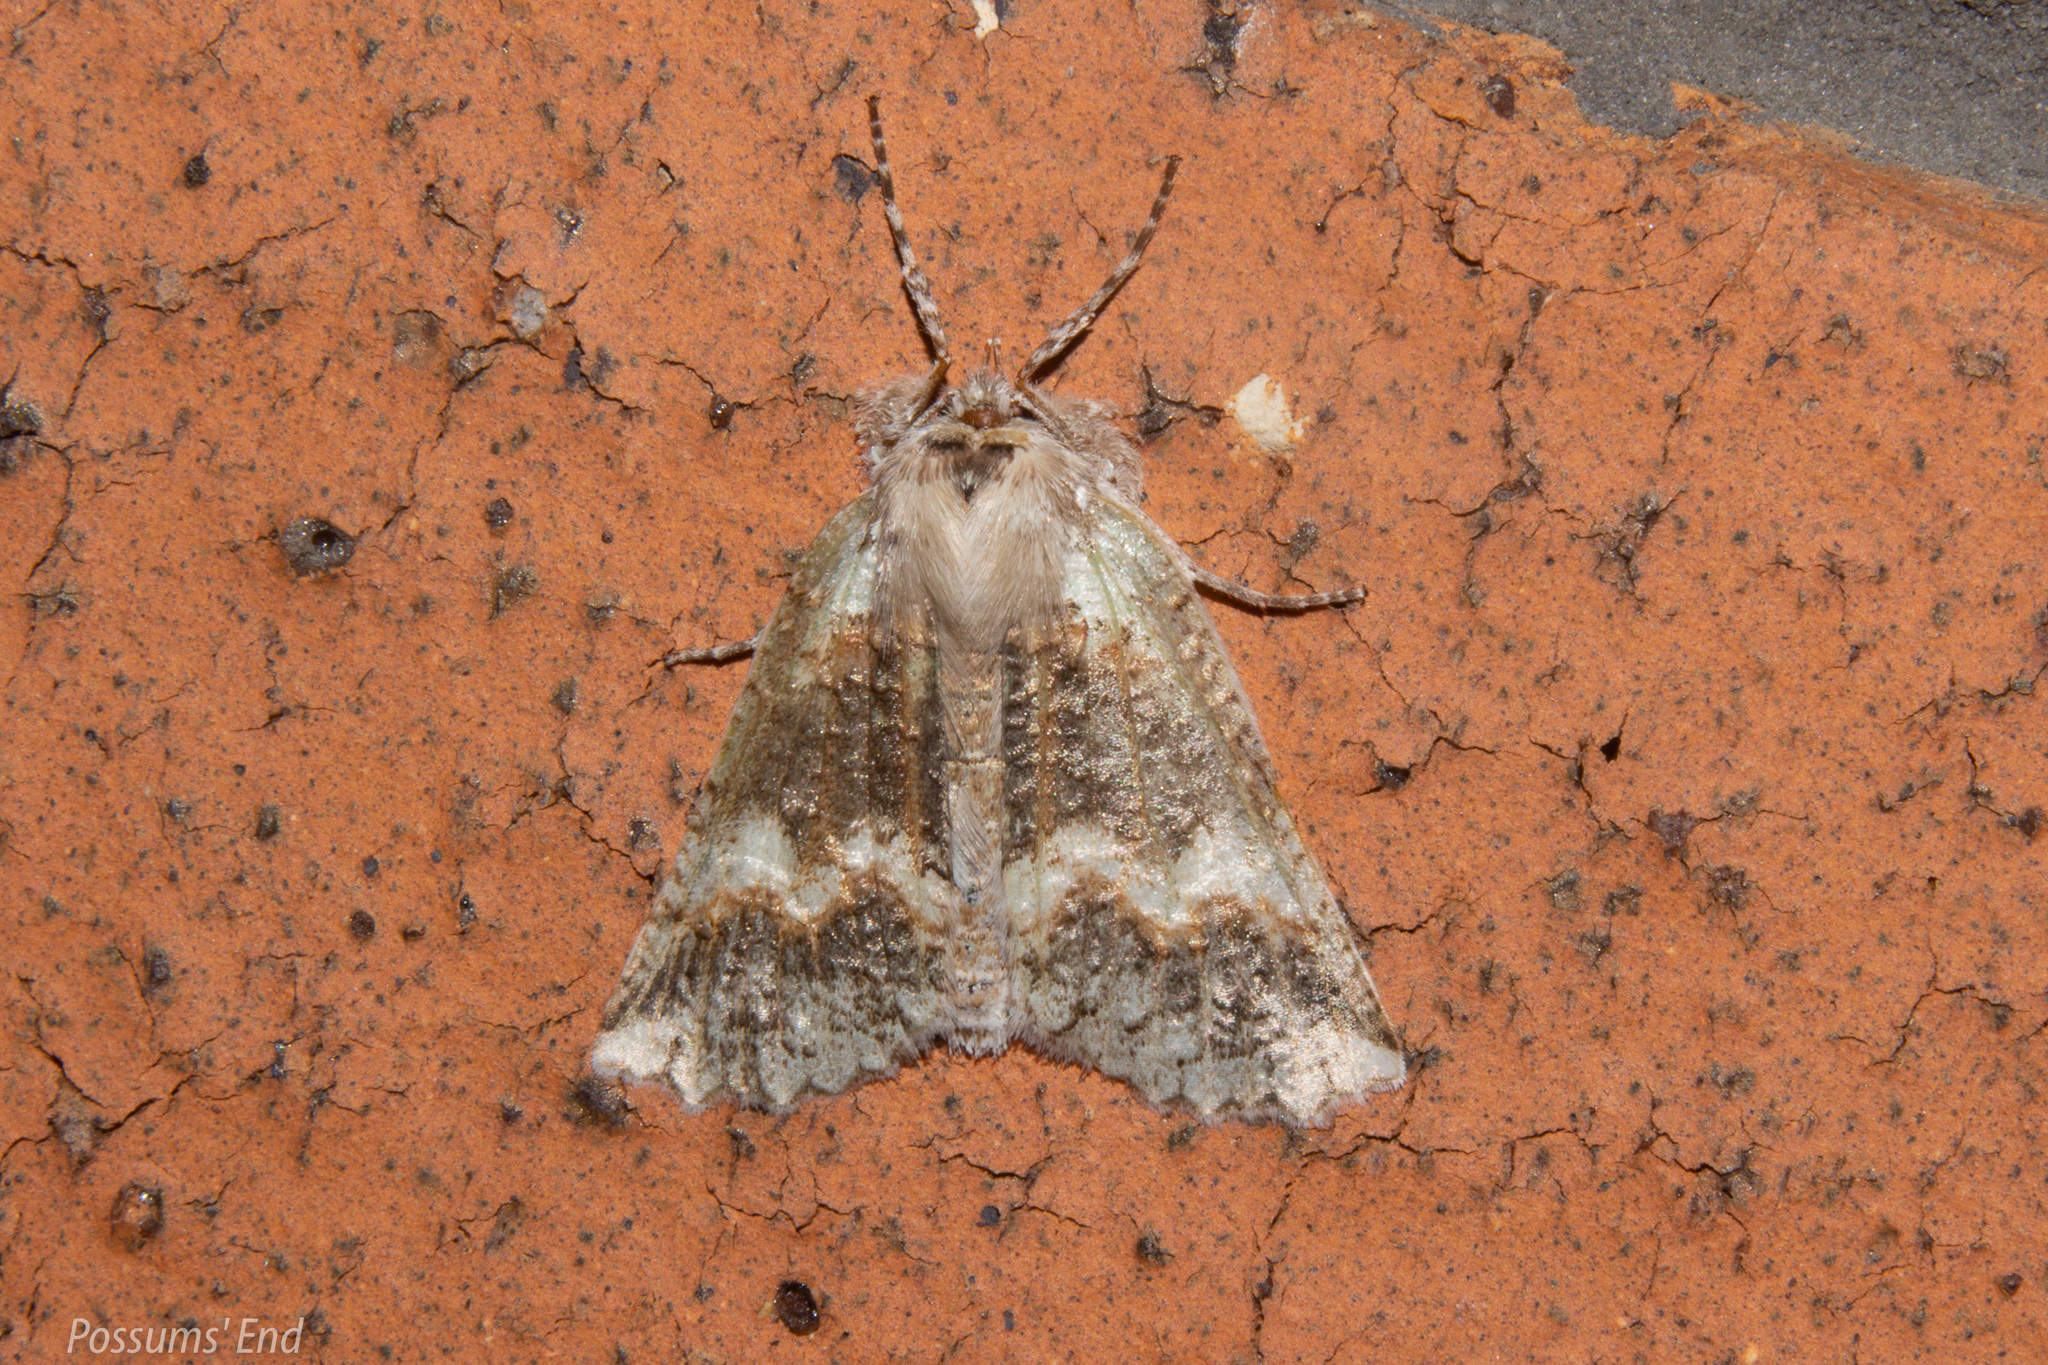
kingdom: Animalia
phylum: Arthropoda
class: Insecta
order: Lepidoptera
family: Geometridae
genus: Declana
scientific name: Declana floccosa
